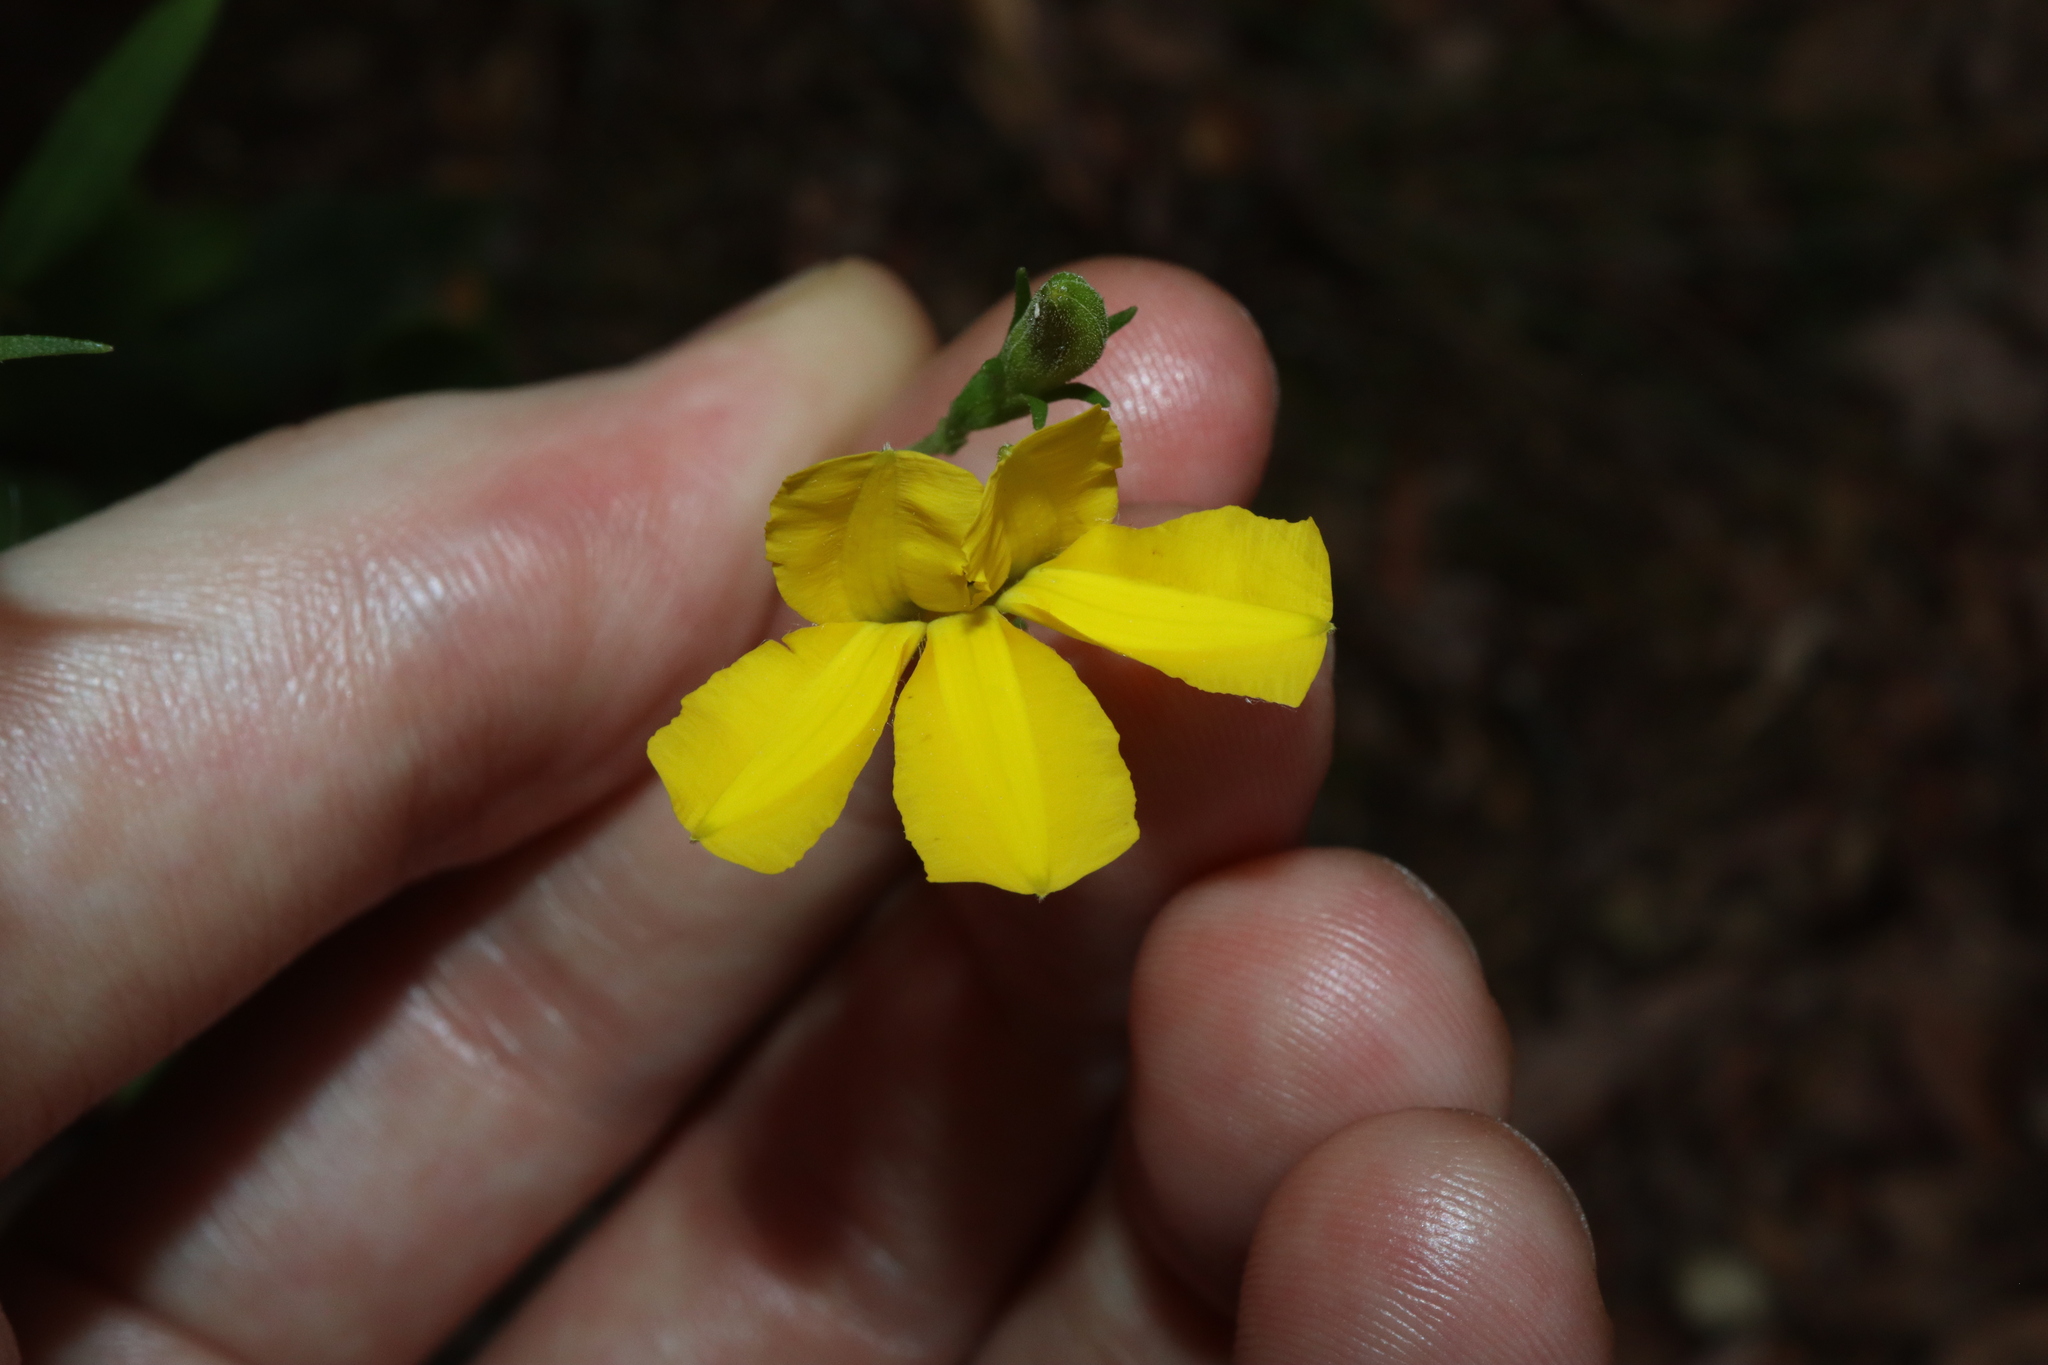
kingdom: Plantae
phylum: Tracheophyta
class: Magnoliopsida
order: Asterales
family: Goodeniaceae
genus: Goodenia
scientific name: Goodenia decurrens
